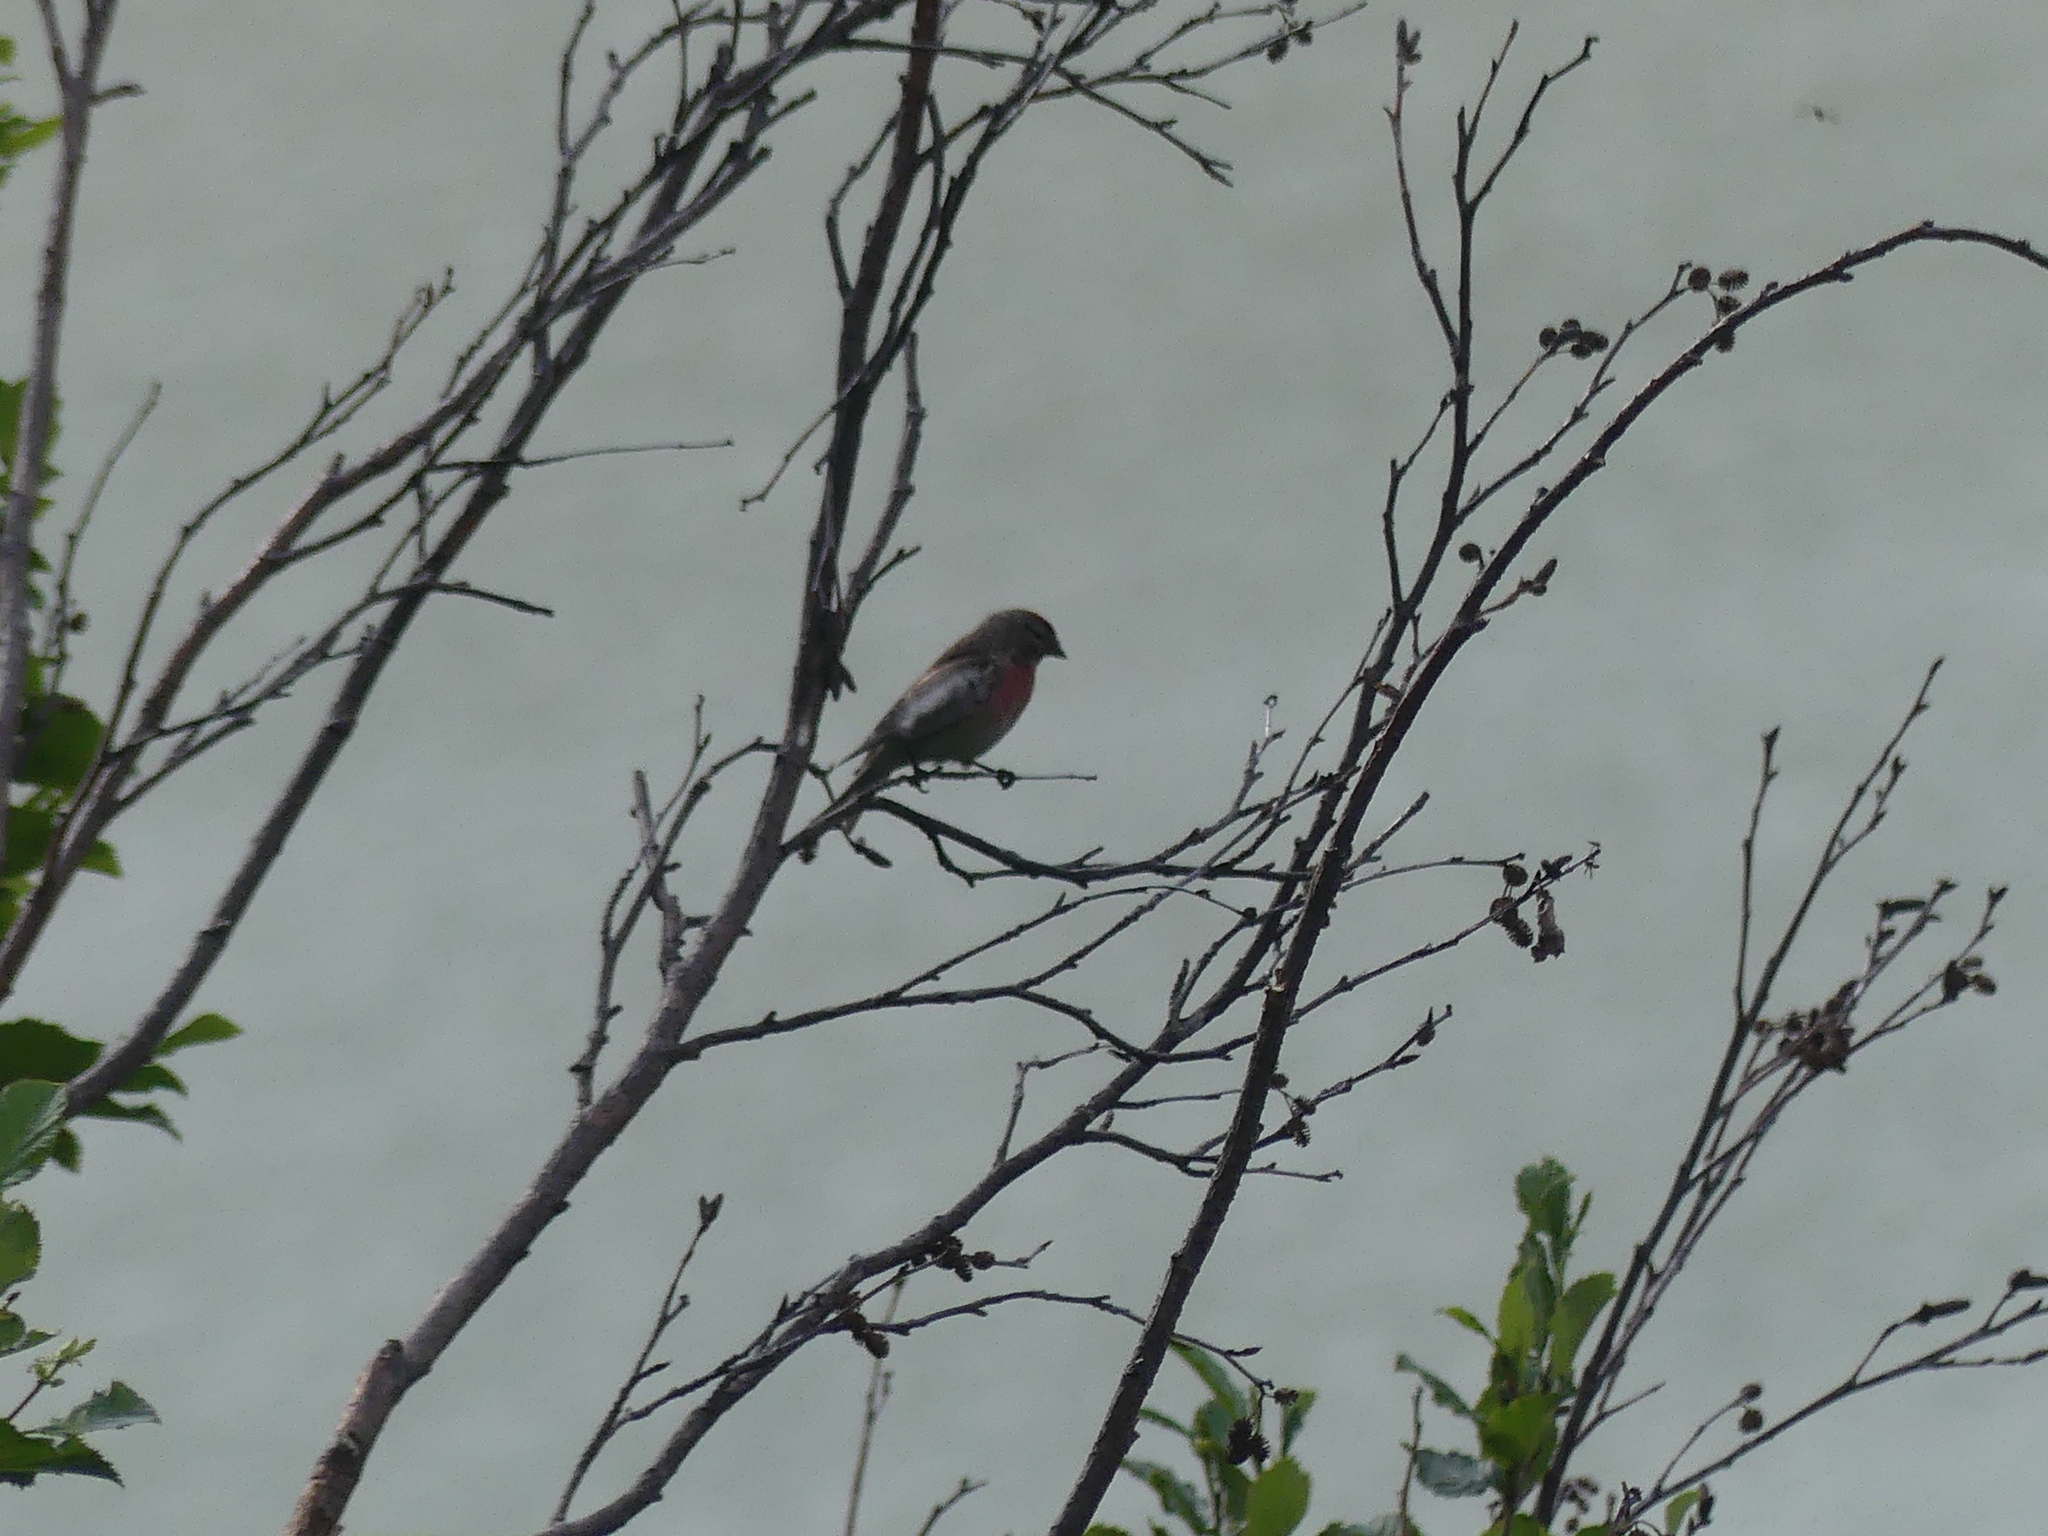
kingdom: Animalia
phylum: Chordata
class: Aves
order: Passeriformes
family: Fringillidae
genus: Acanthis
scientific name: Acanthis flammea
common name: Common redpoll
